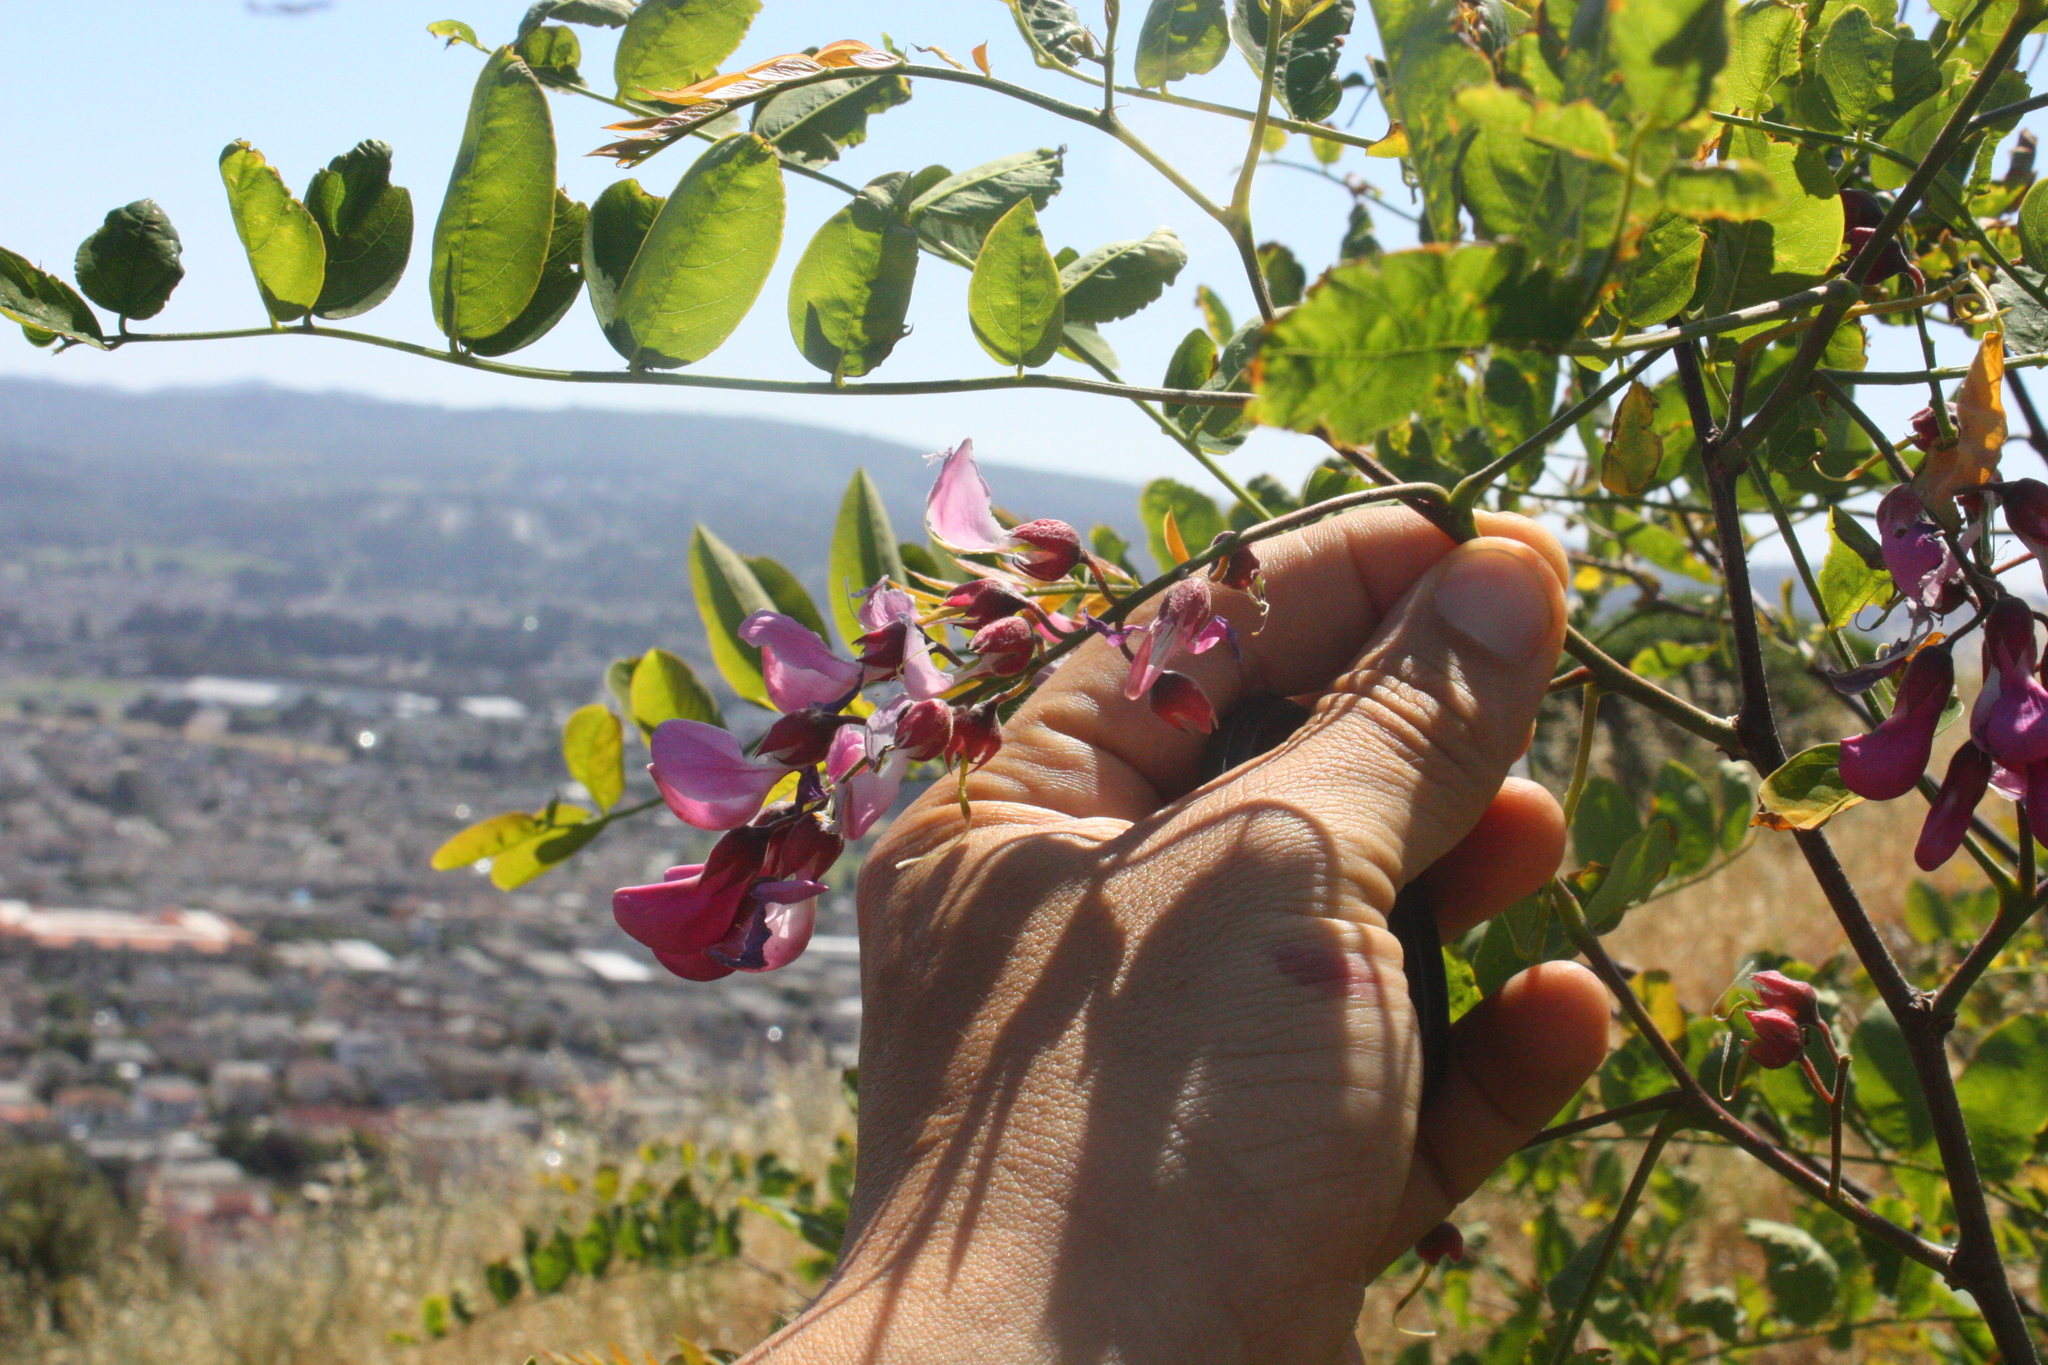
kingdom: Plantae
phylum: Tracheophyta
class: Magnoliopsida
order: Fabales
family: Fabaceae
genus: Robinia
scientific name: Robinia hispida
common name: Bristly locust
